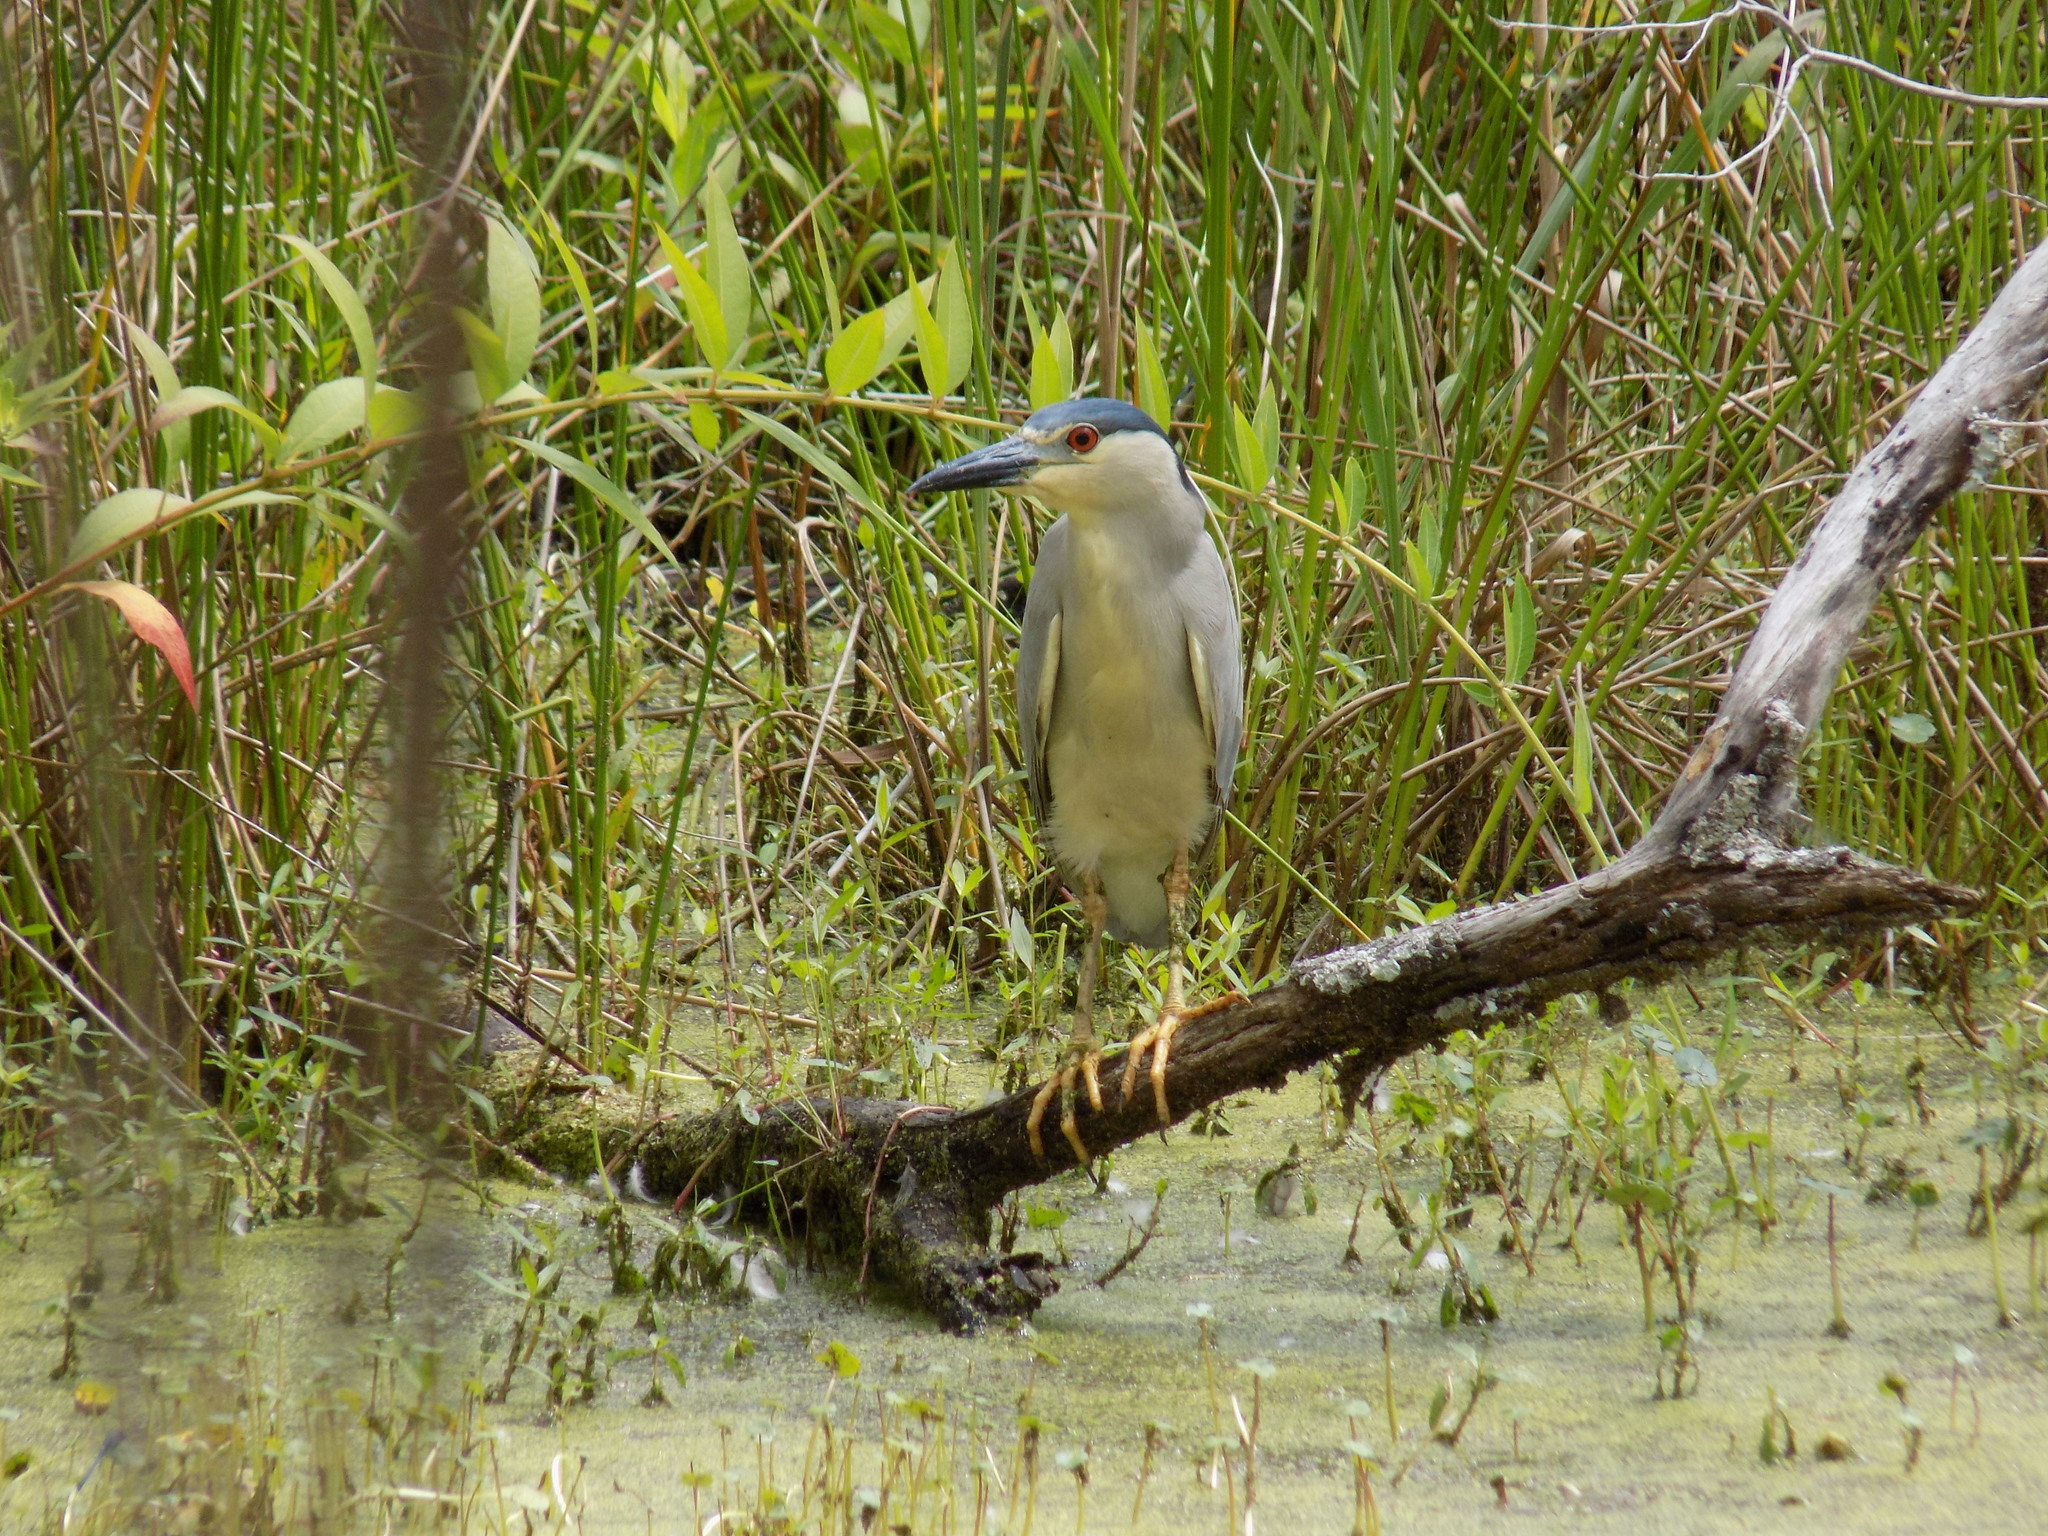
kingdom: Animalia
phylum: Chordata
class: Aves
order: Pelecaniformes
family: Ardeidae
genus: Nycticorax
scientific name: Nycticorax nycticorax
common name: Black-crowned night heron
